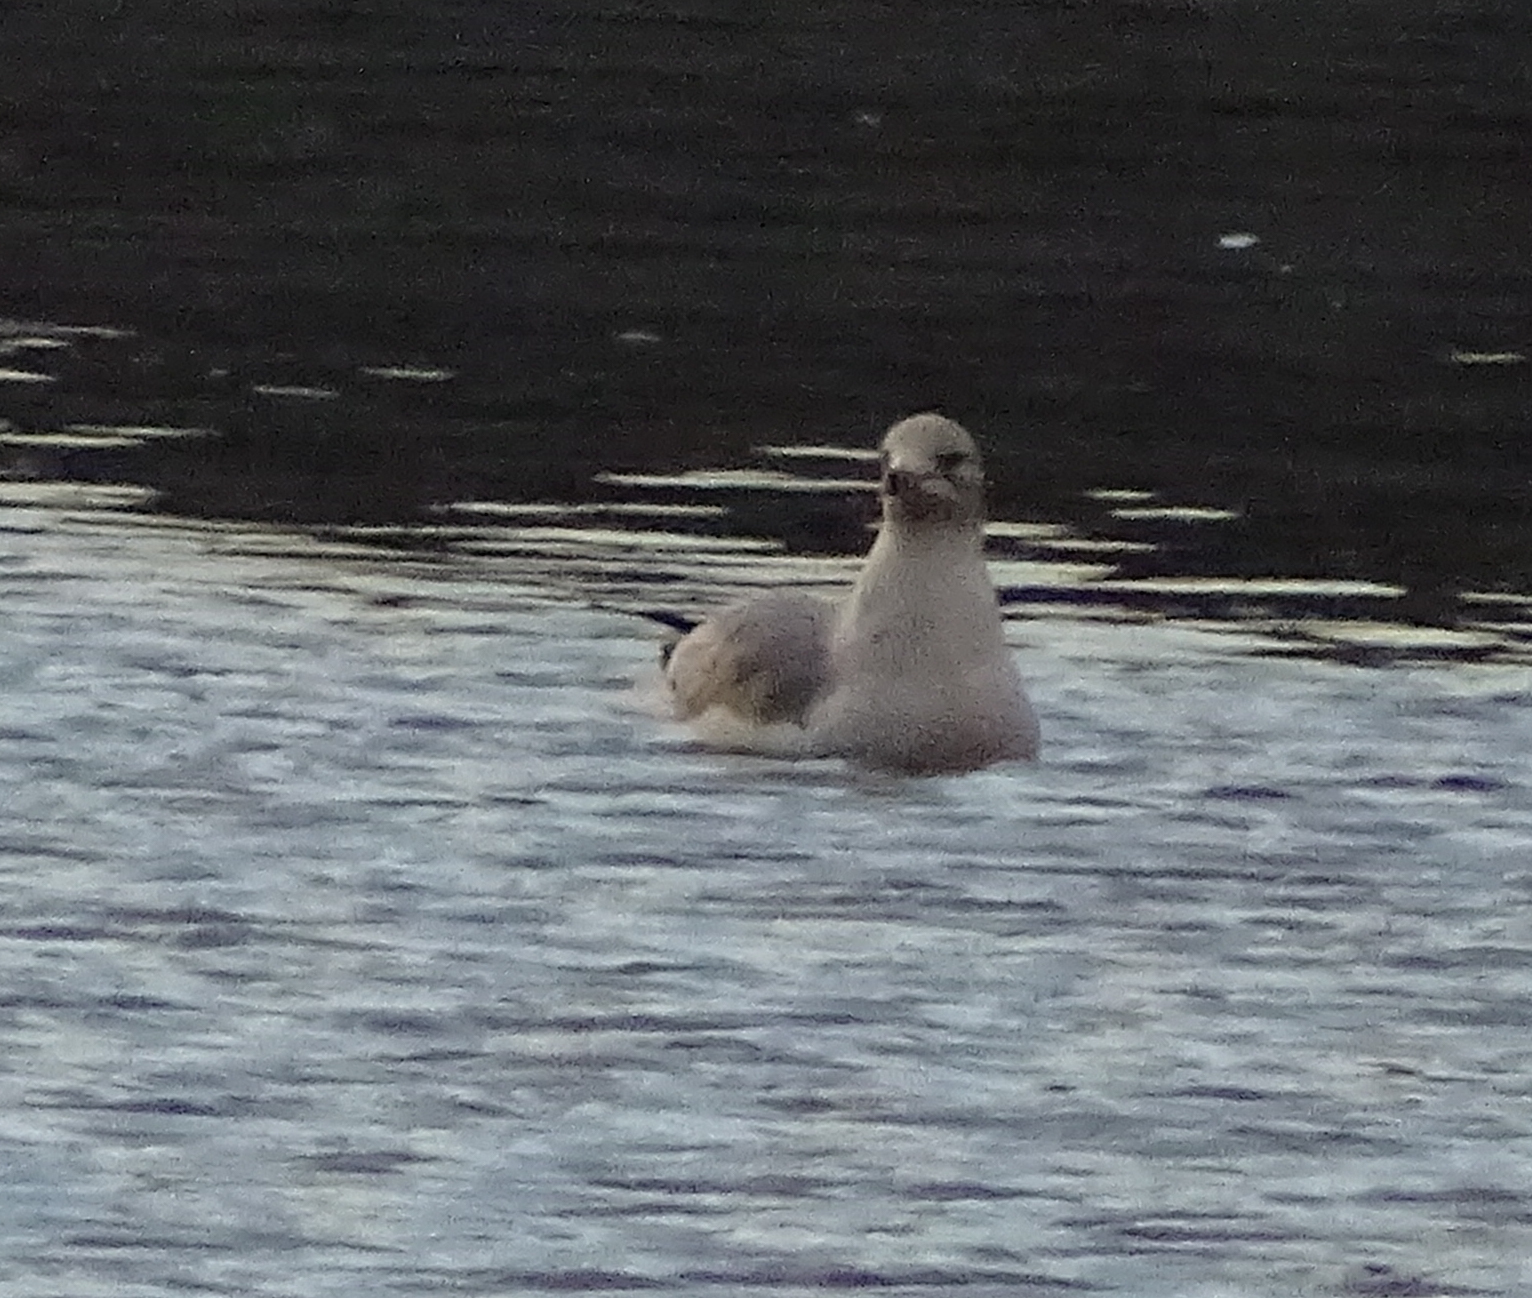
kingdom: Animalia
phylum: Chordata
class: Aves
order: Charadriiformes
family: Laridae
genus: Larus
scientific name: Larus delawarensis
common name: Ring-billed gull
